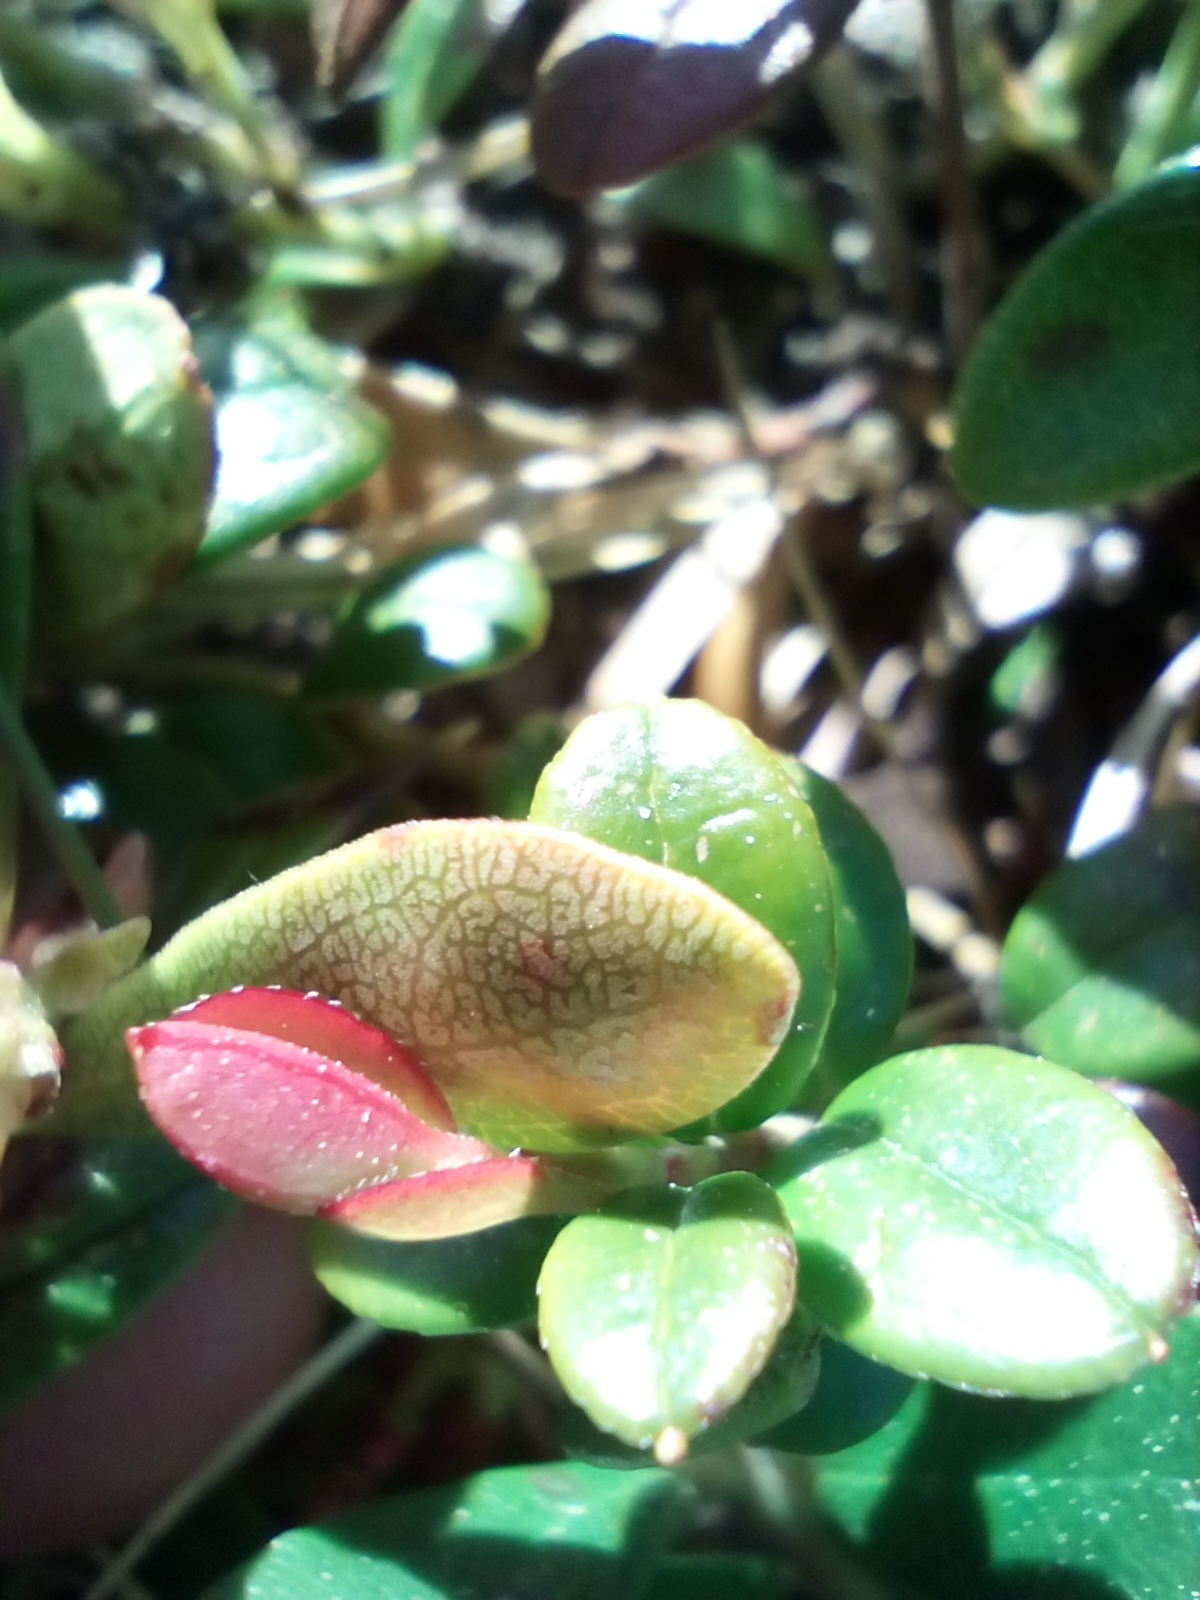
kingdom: Plantae
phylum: Tracheophyta
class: Magnoliopsida
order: Ericales
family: Ericaceae
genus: Arctostaphylos
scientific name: Arctostaphylos uva-ursi
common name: Bearberry
